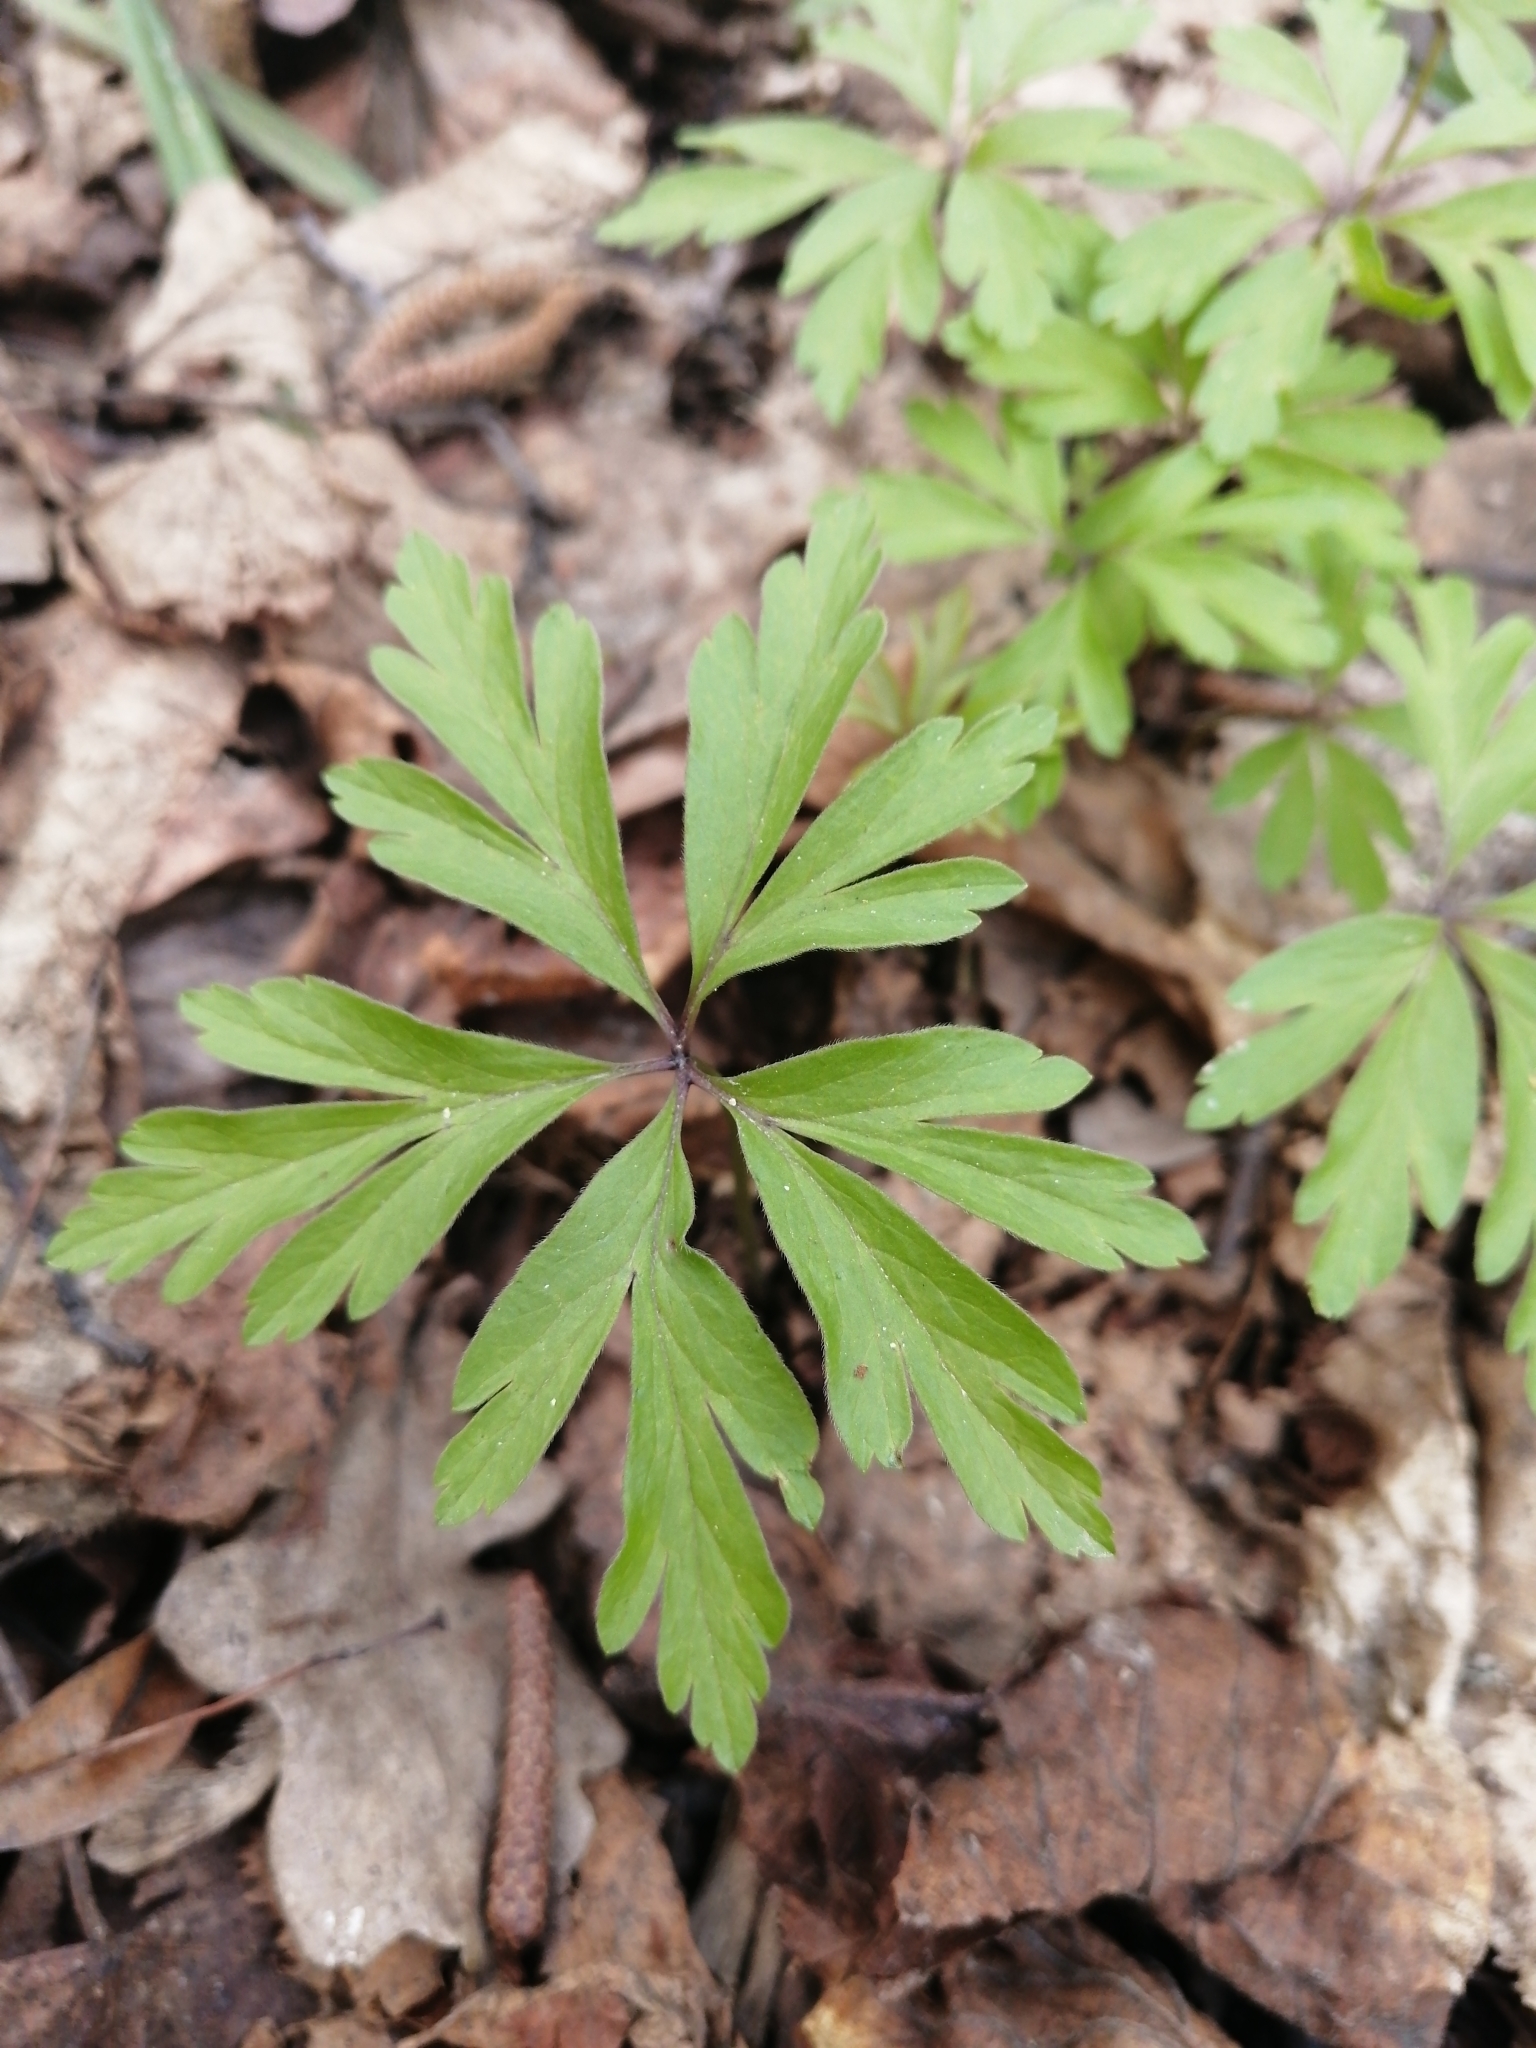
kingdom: Plantae
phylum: Tracheophyta
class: Magnoliopsida
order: Ranunculales
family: Ranunculaceae
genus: Anemone
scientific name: Anemone ranunculoides
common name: Yellow anemone
